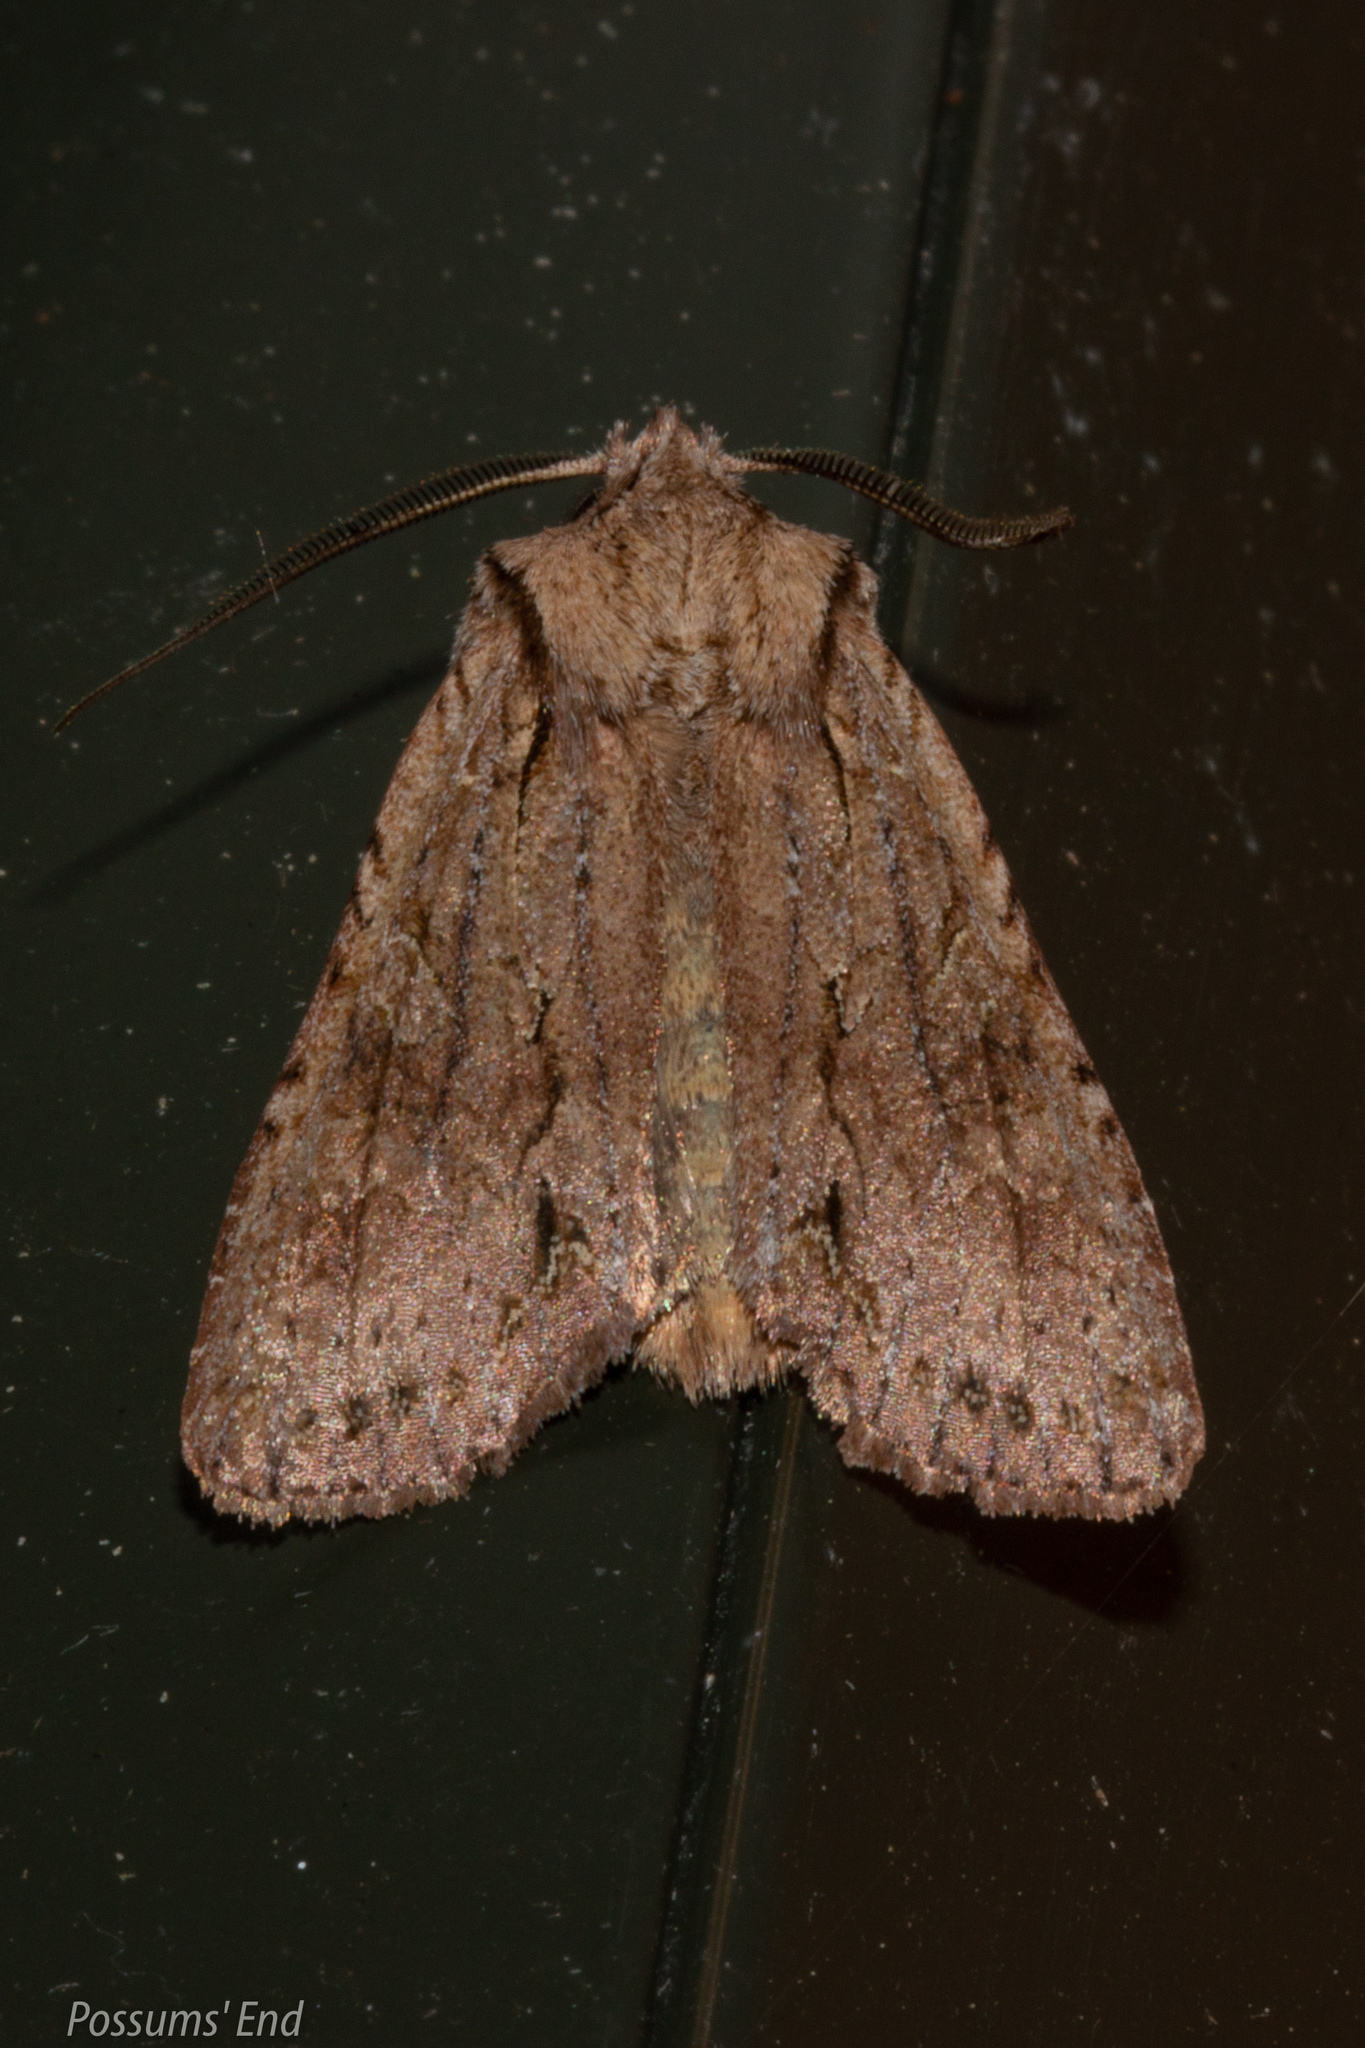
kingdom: Animalia
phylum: Arthropoda
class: Insecta
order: Lepidoptera
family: Noctuidae
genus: Ichneutica
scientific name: Ichneutica
